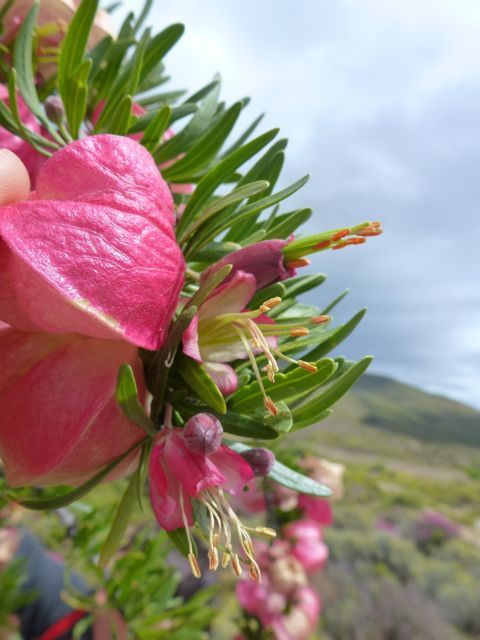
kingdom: Plantae
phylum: Tracheophyta
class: Magnoliopsida
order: Sapindales
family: Meliaceae
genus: Nymania
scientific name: Nymania capensis
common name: Chinese lantern tree
